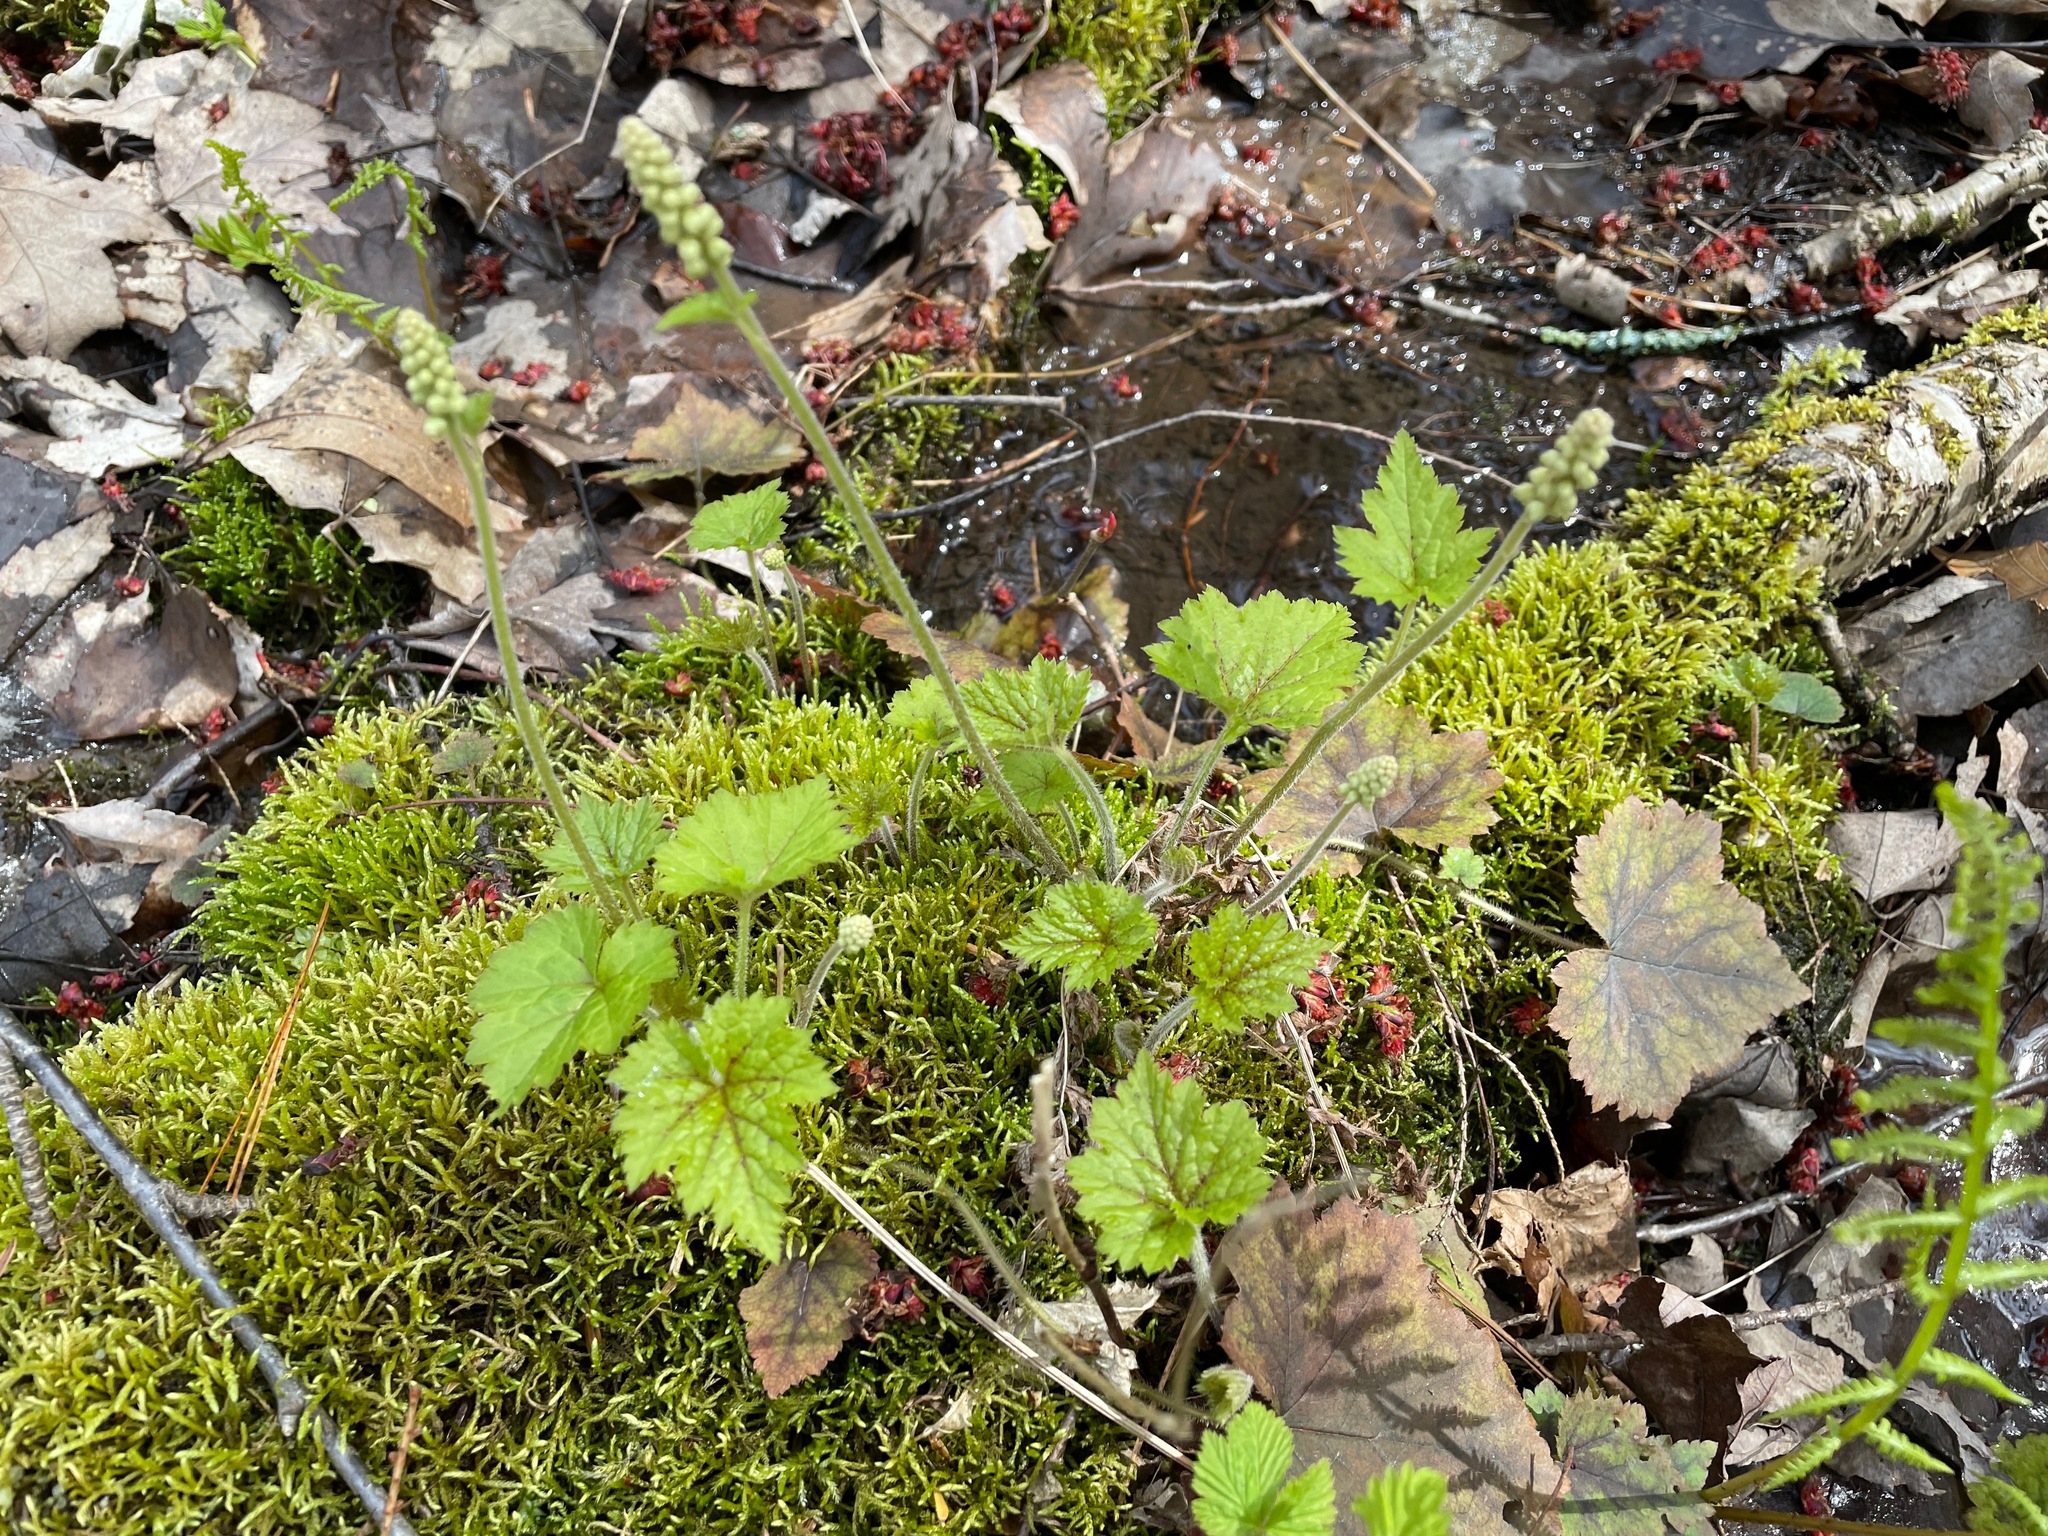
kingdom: Plantae
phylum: Tracheophyta
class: Magnoliopsida
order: Saxifragales
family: Saxifragaceae
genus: Tiarella
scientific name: Tiarella stolonifera
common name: Stoloniferous foamflower
